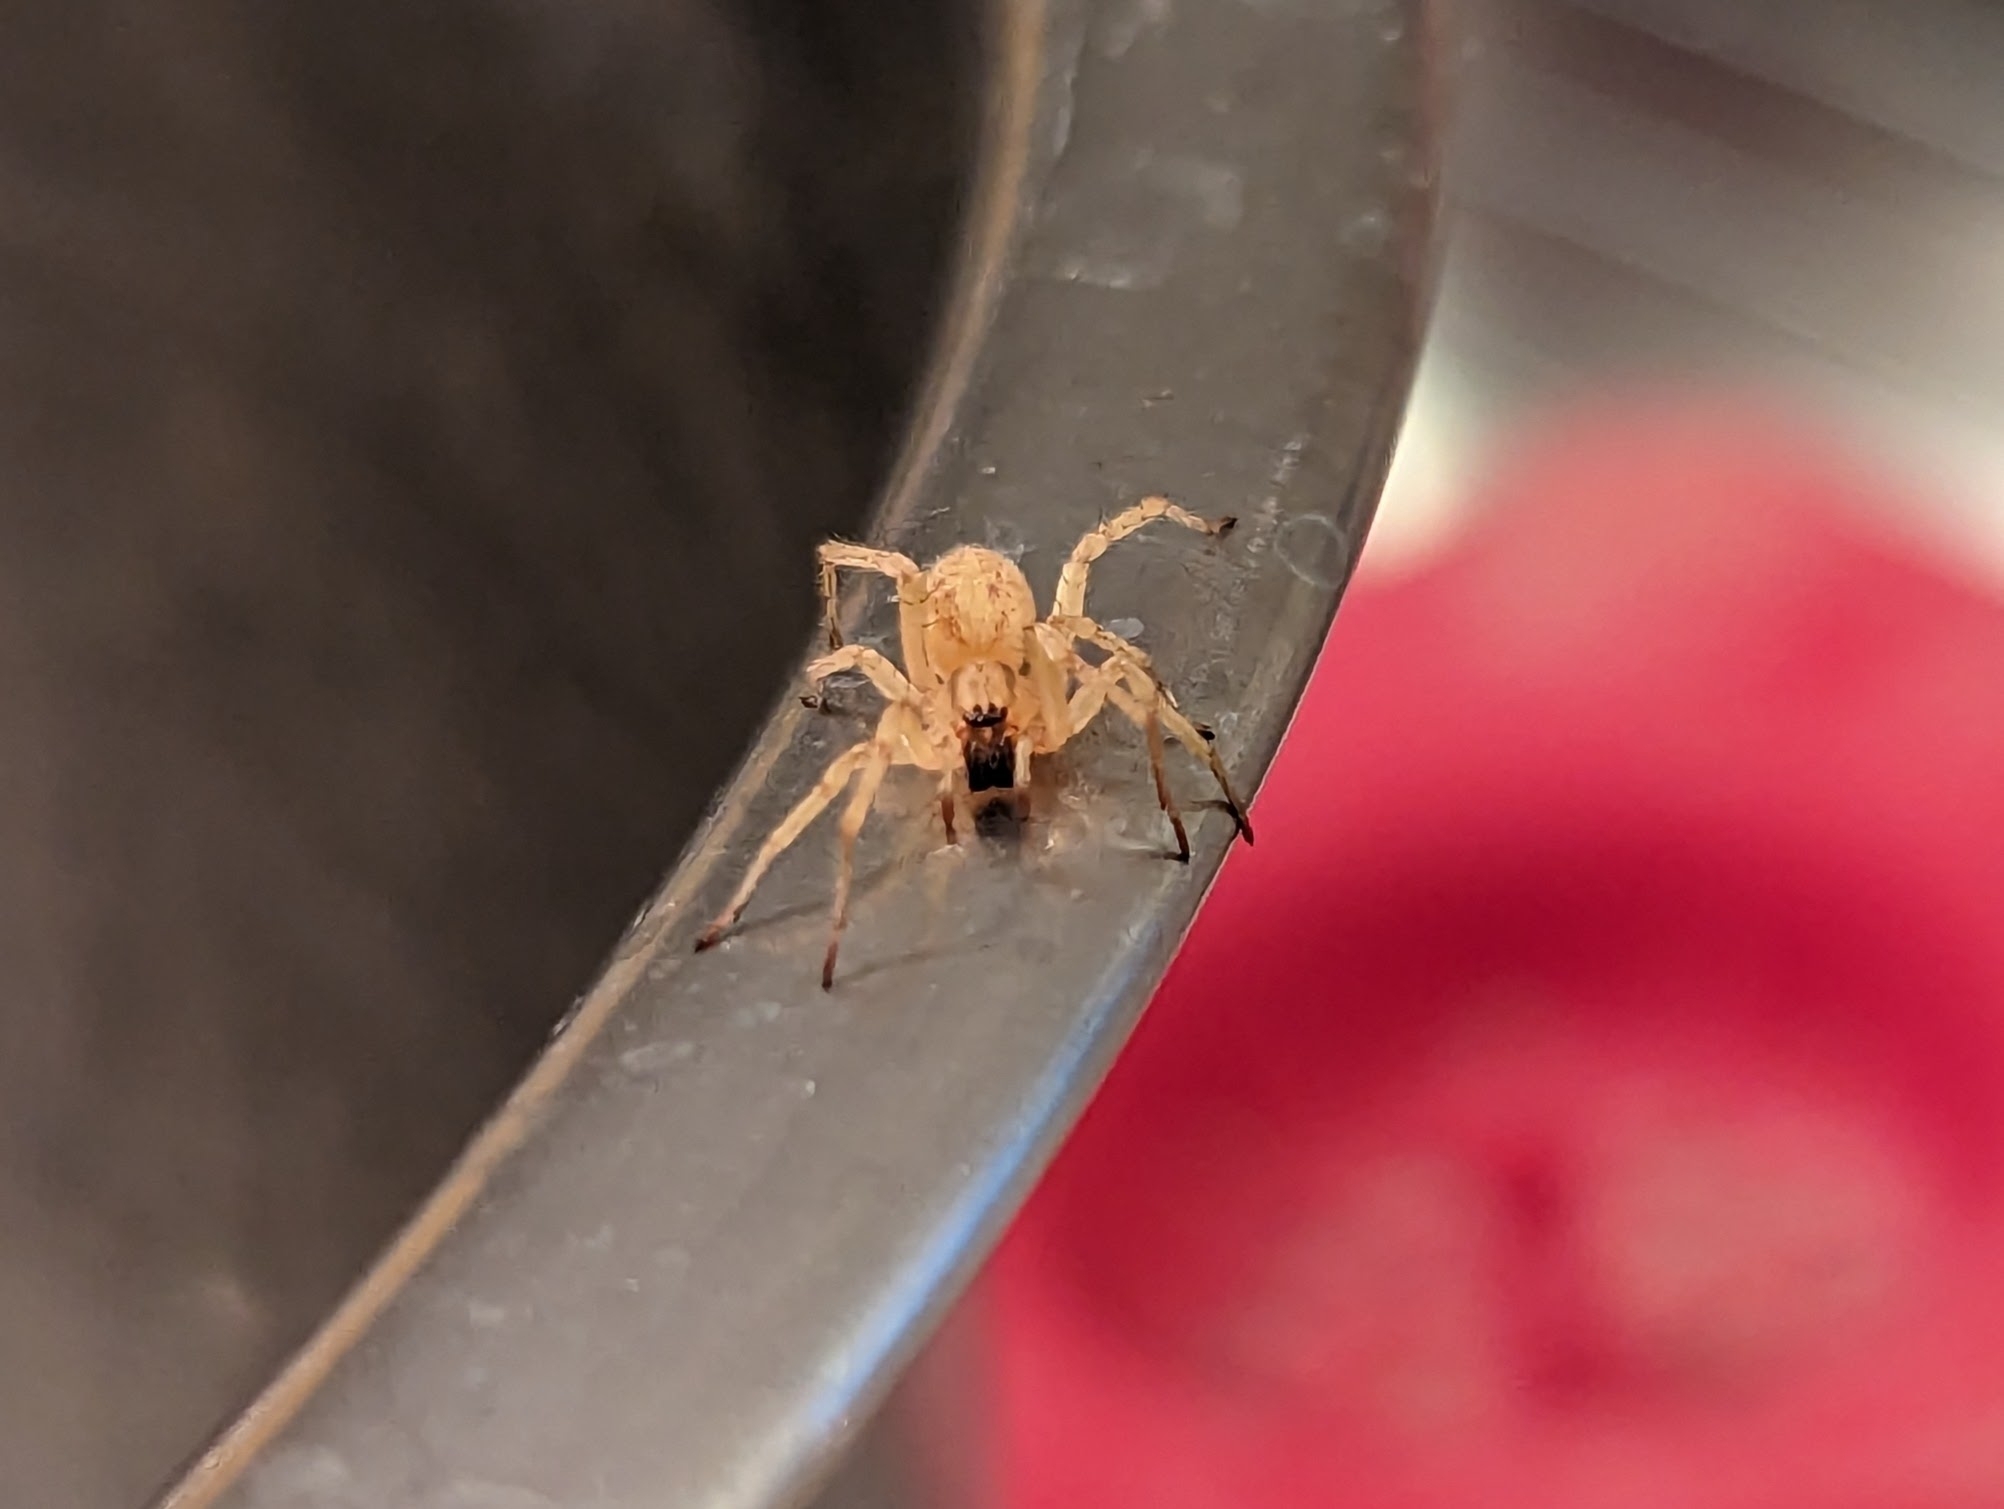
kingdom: Animalia
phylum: Arthropoda
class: Arachnida
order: Araneae
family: Anyphaenidae
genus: Hibana
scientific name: Hibana gracilis
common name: Garden ghost spider
